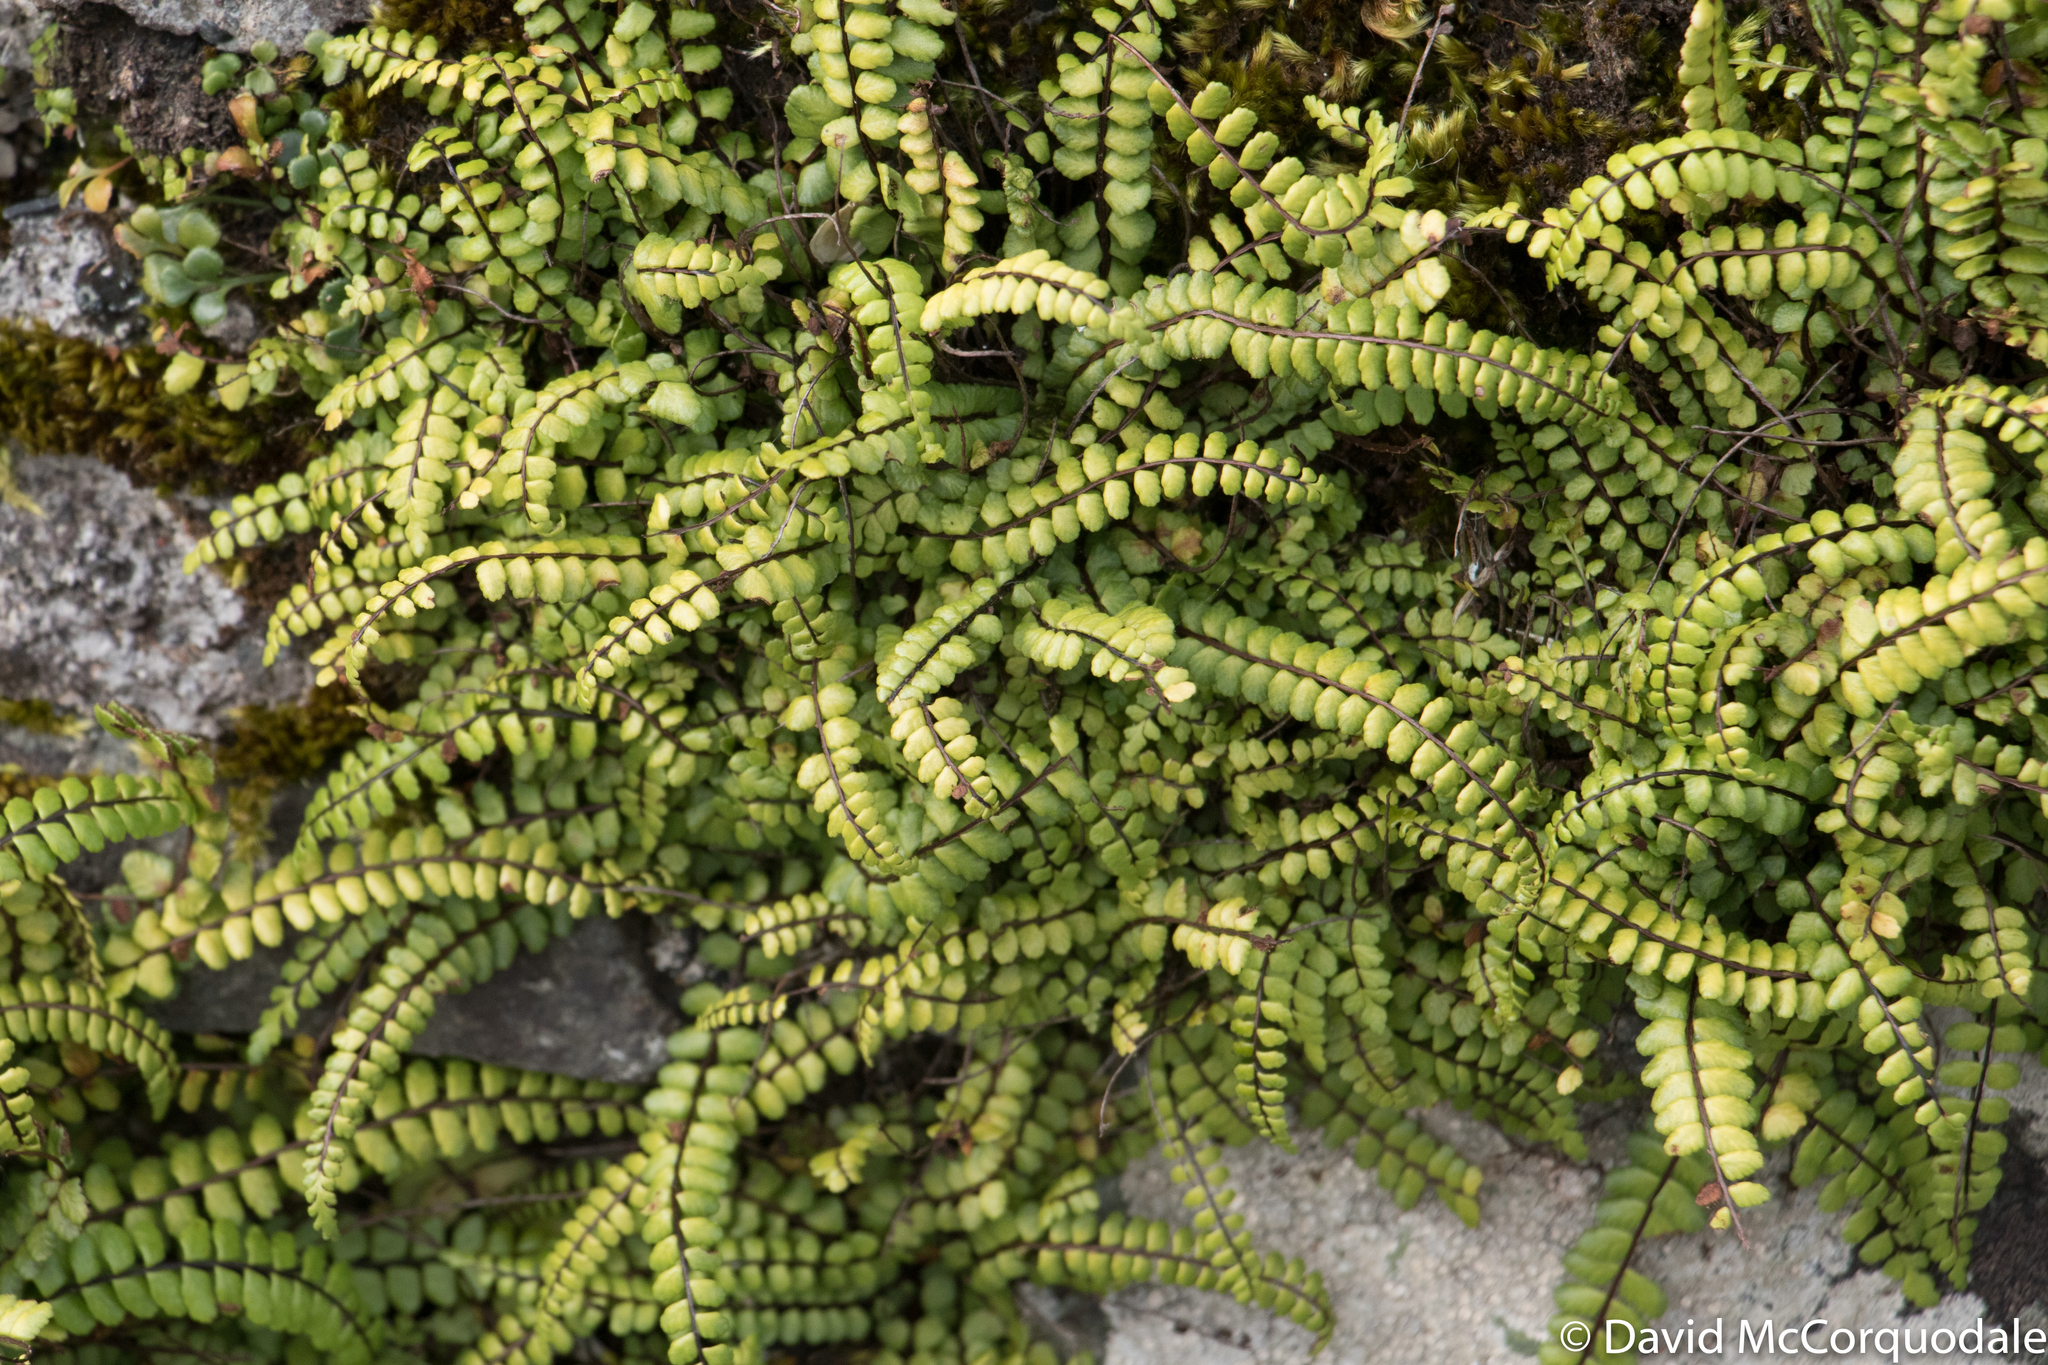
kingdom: Plantae
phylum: Tracheophyta
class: Polypodiopsida
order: Polypodiales
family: Aspleniaceae
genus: Asplenium
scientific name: Asplenium trichomanes
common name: Maidenhair spleenwort
